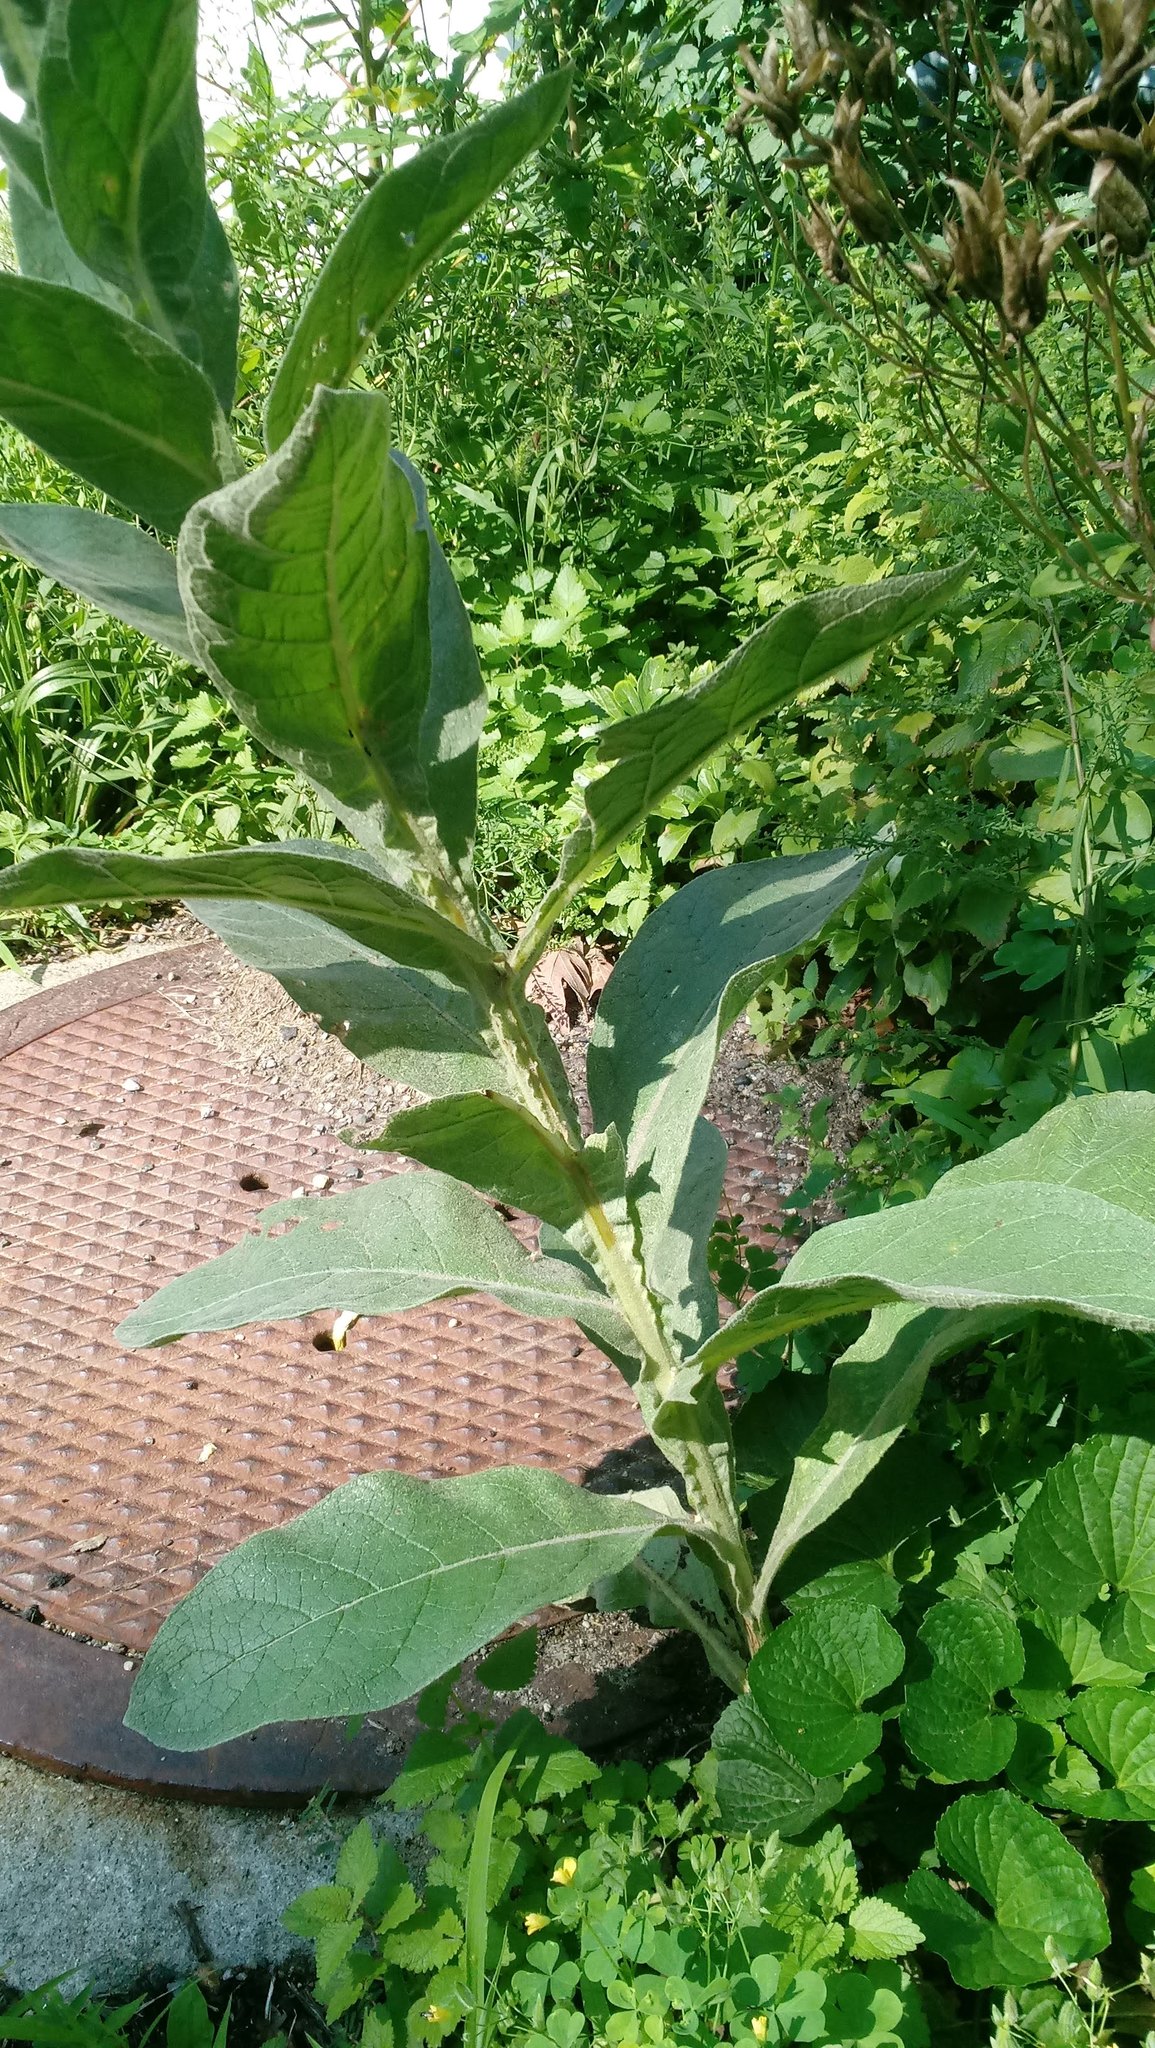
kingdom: Plantae
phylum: Tracheophyta
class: Magnoliopsida
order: Lamiales
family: Scrophulariaceae
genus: Verbascum
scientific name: Verbascum thapsus
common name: Common mullein
